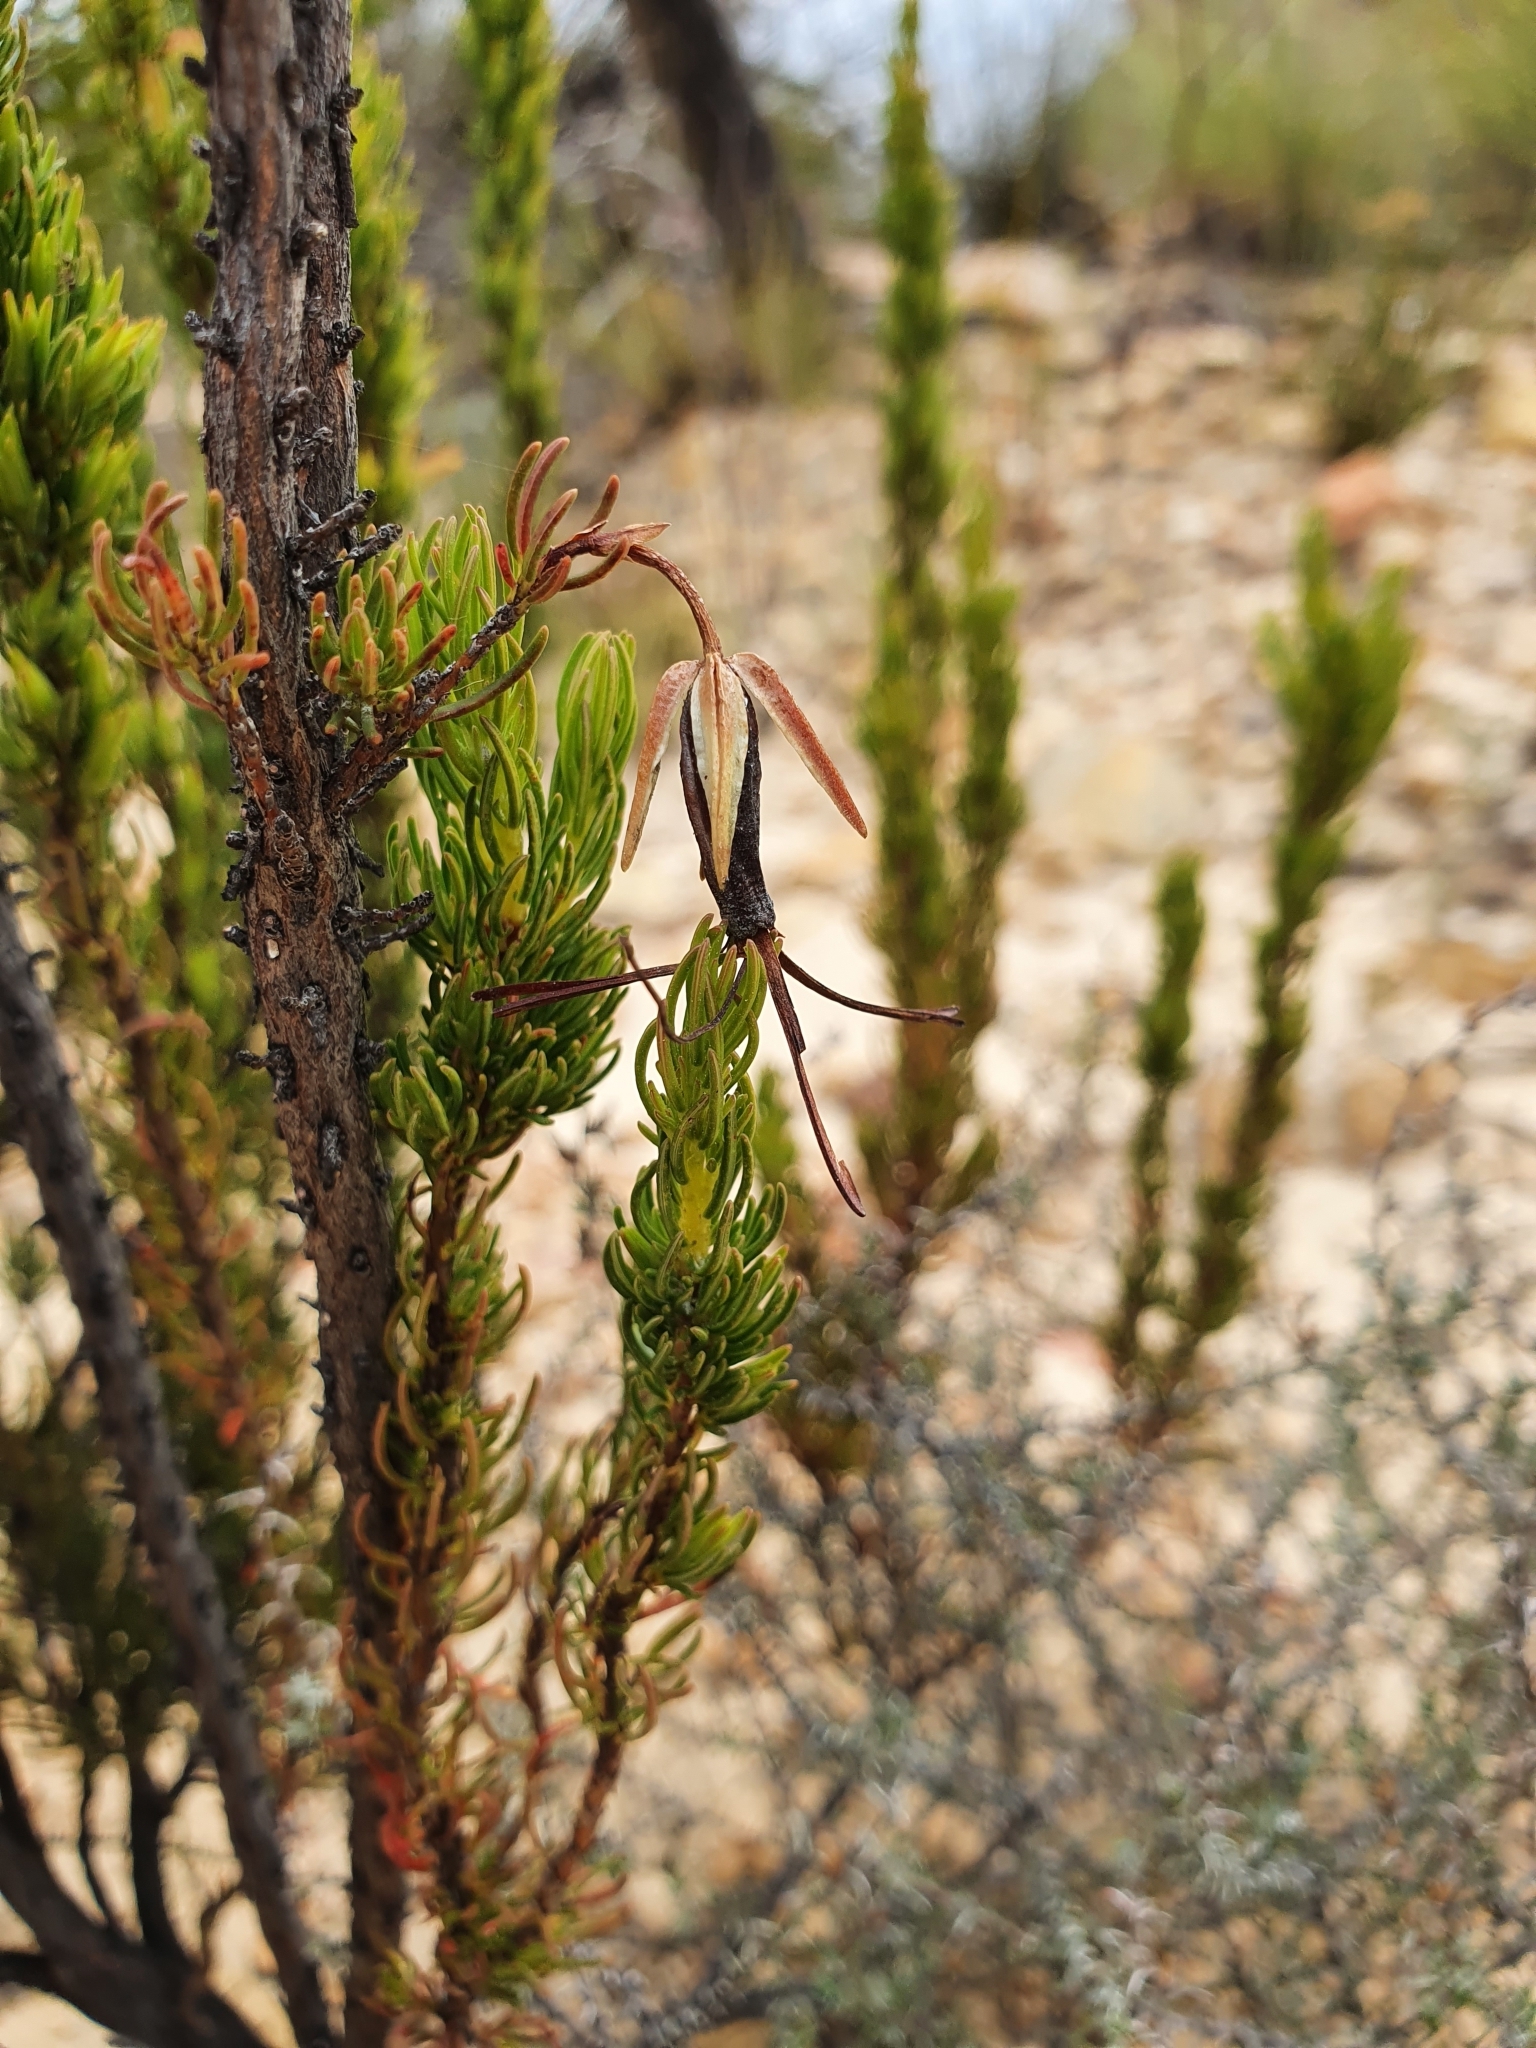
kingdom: Plantae
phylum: Tracheophyta
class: Magnoliopsida
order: Ericales
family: Ericaceae
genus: Erica
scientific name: Erica plukenetii
